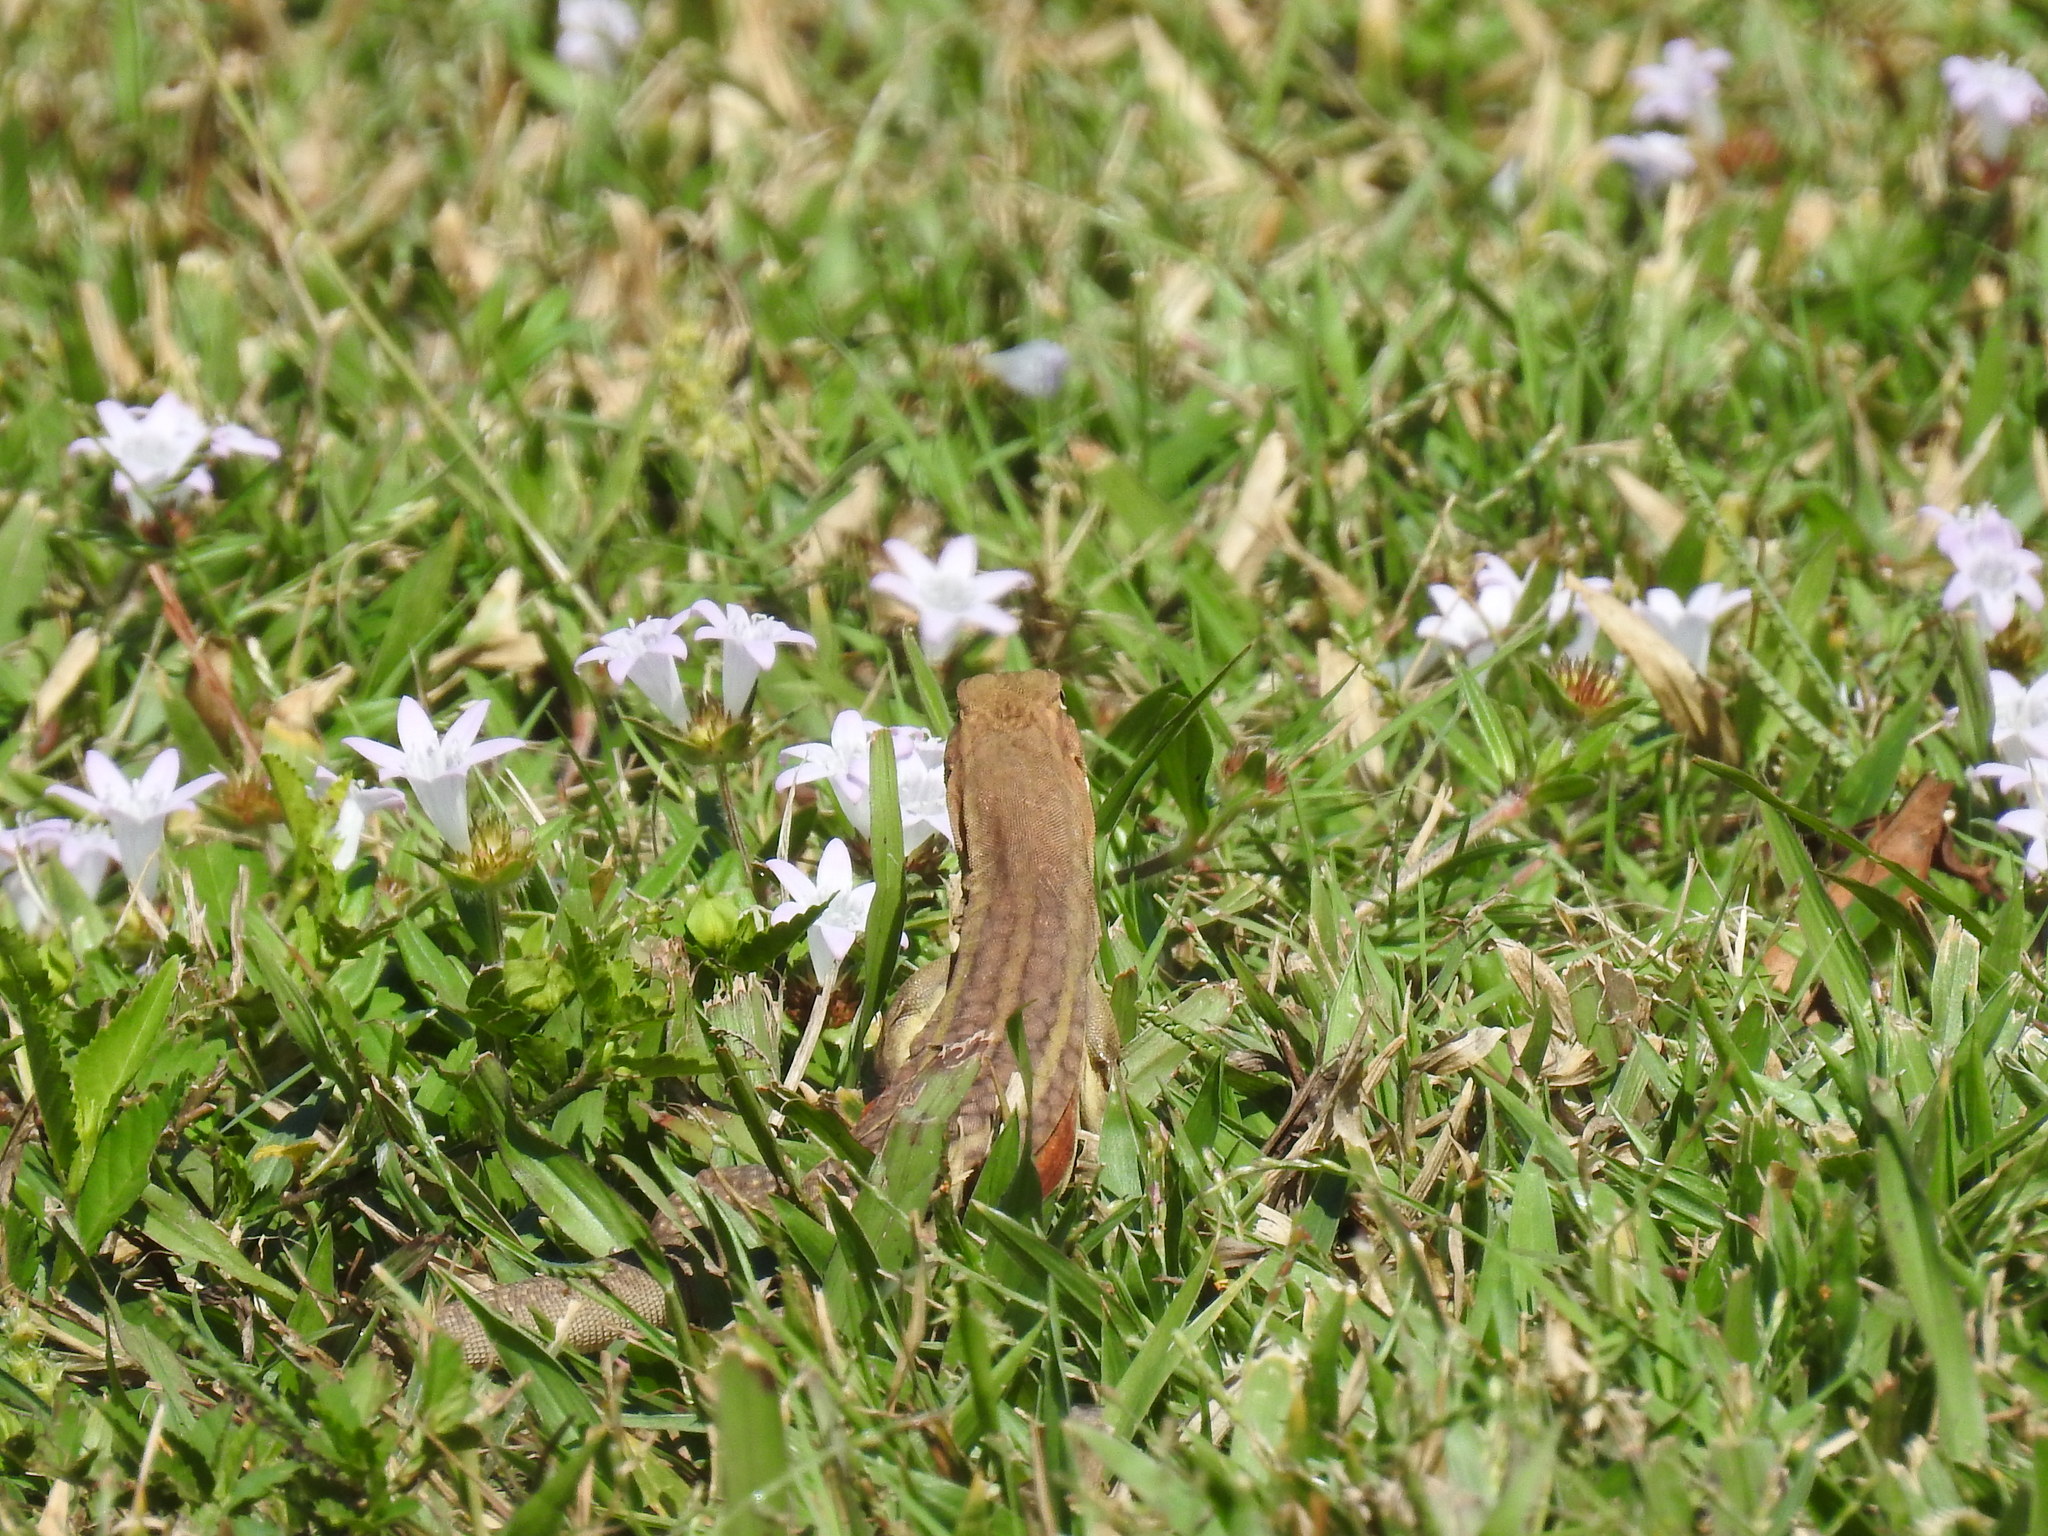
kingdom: Animalia
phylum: Chordata
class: Squamata
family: Agamidae
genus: Leiolepis
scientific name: Leiolepis rubritaeniata
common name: Reeves' butterfly lizard
